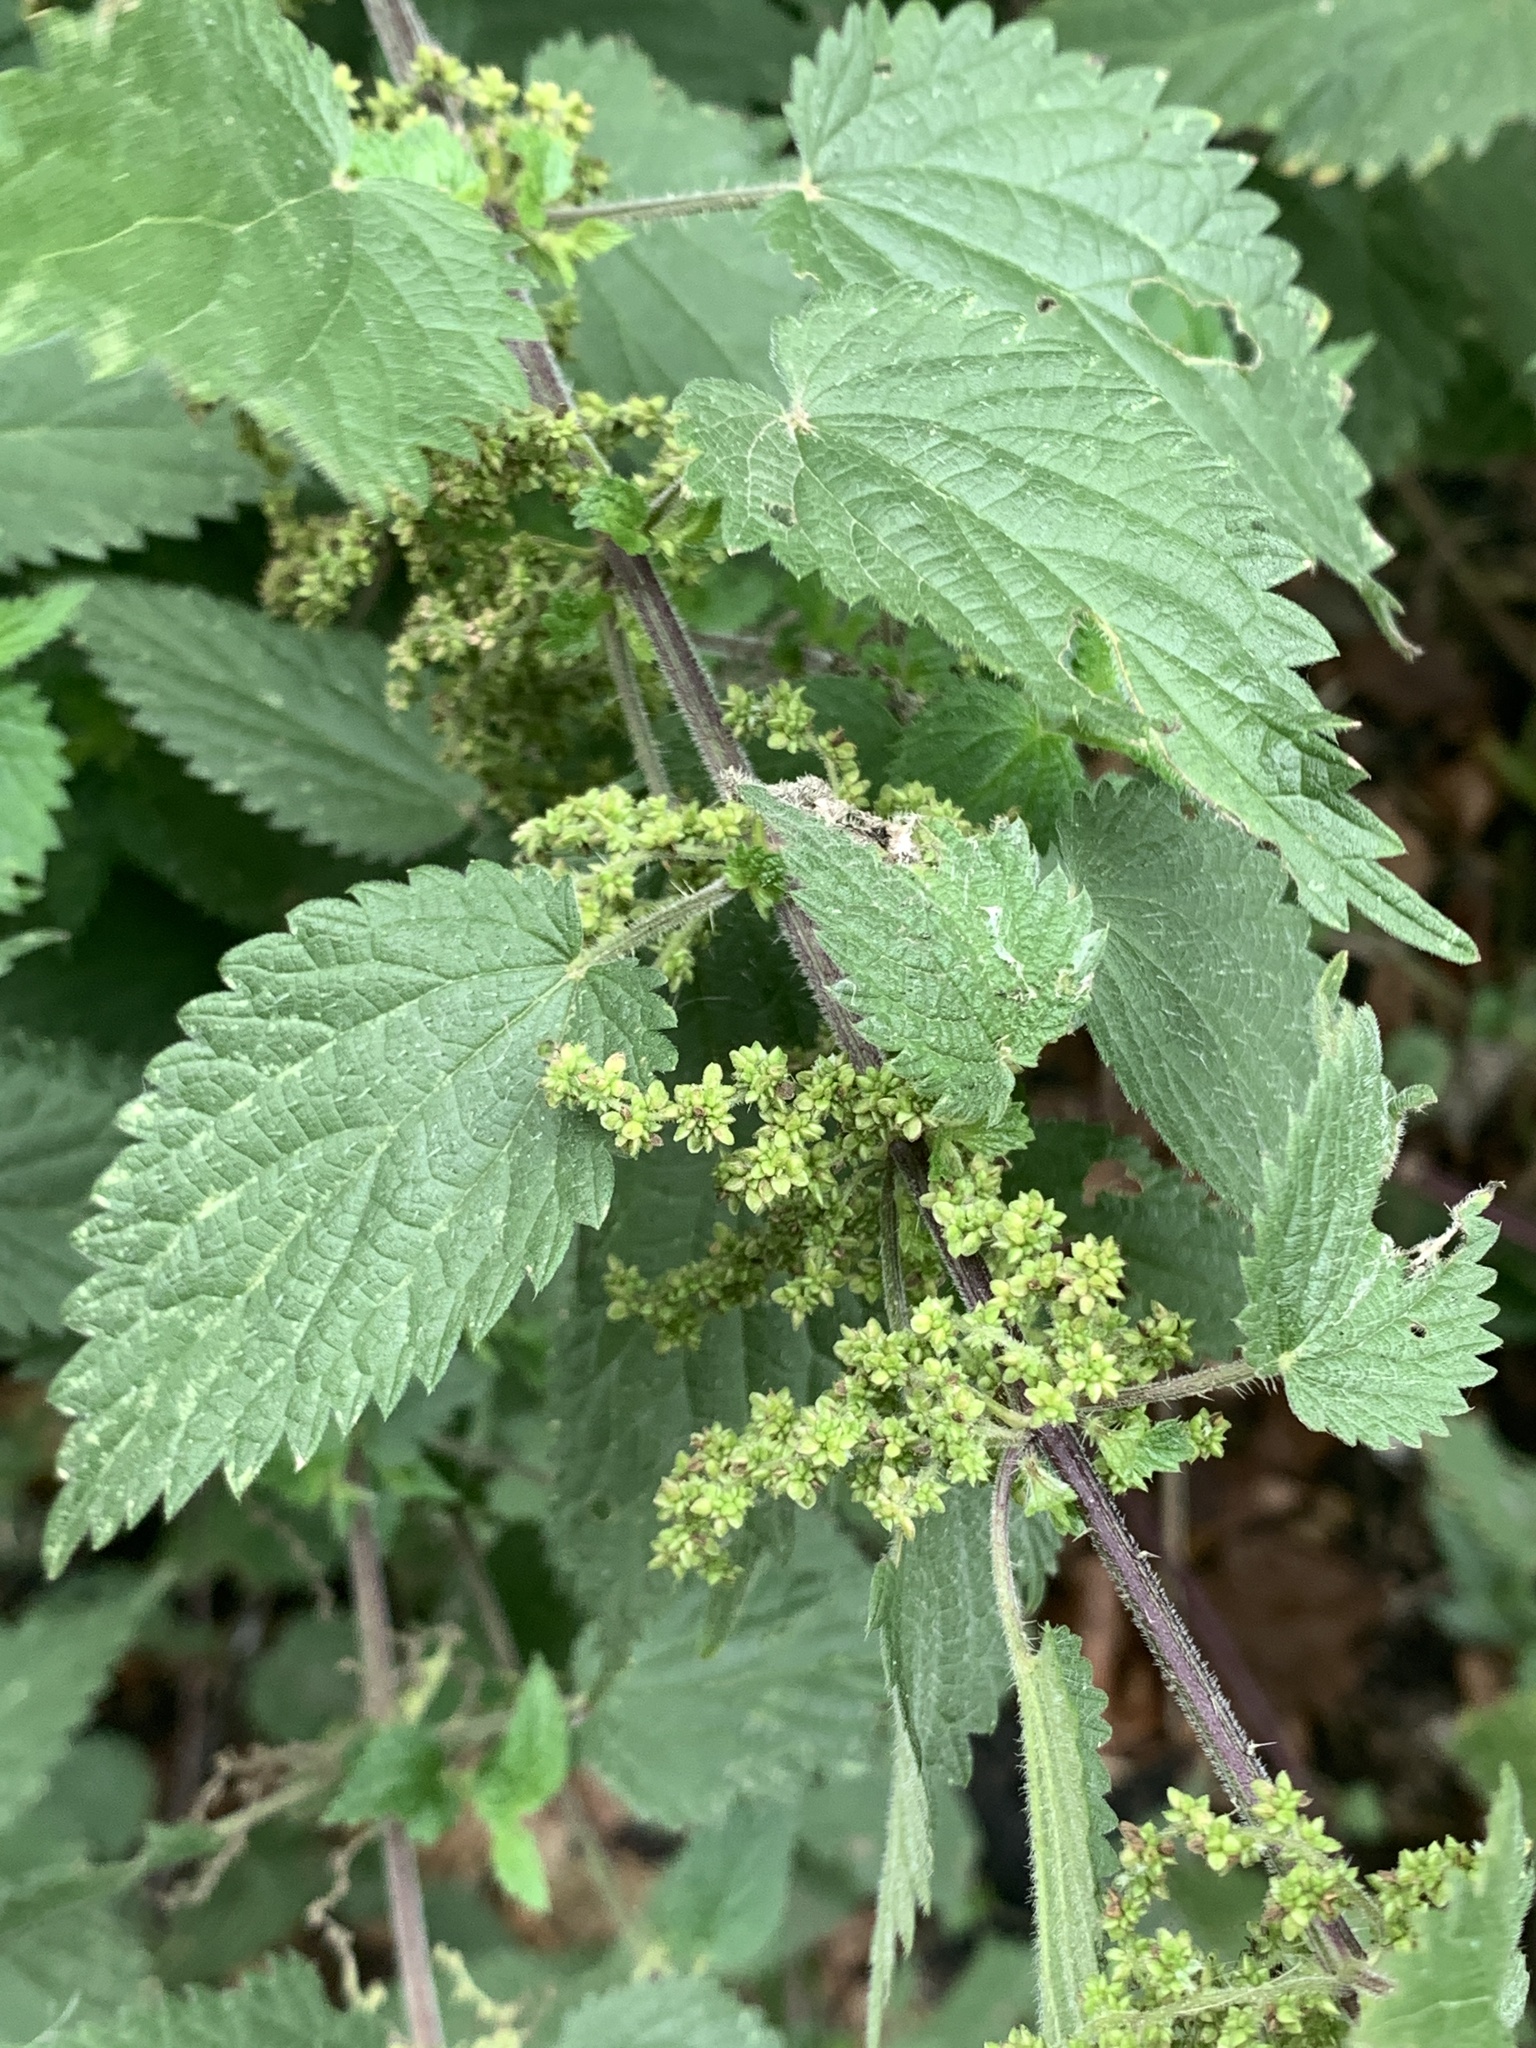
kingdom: Plantae
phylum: Tracheophyta
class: Magnoliopsida
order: Rosales
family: Urticaceae
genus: Urtica
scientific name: Urtica dioica
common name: Common nettle
